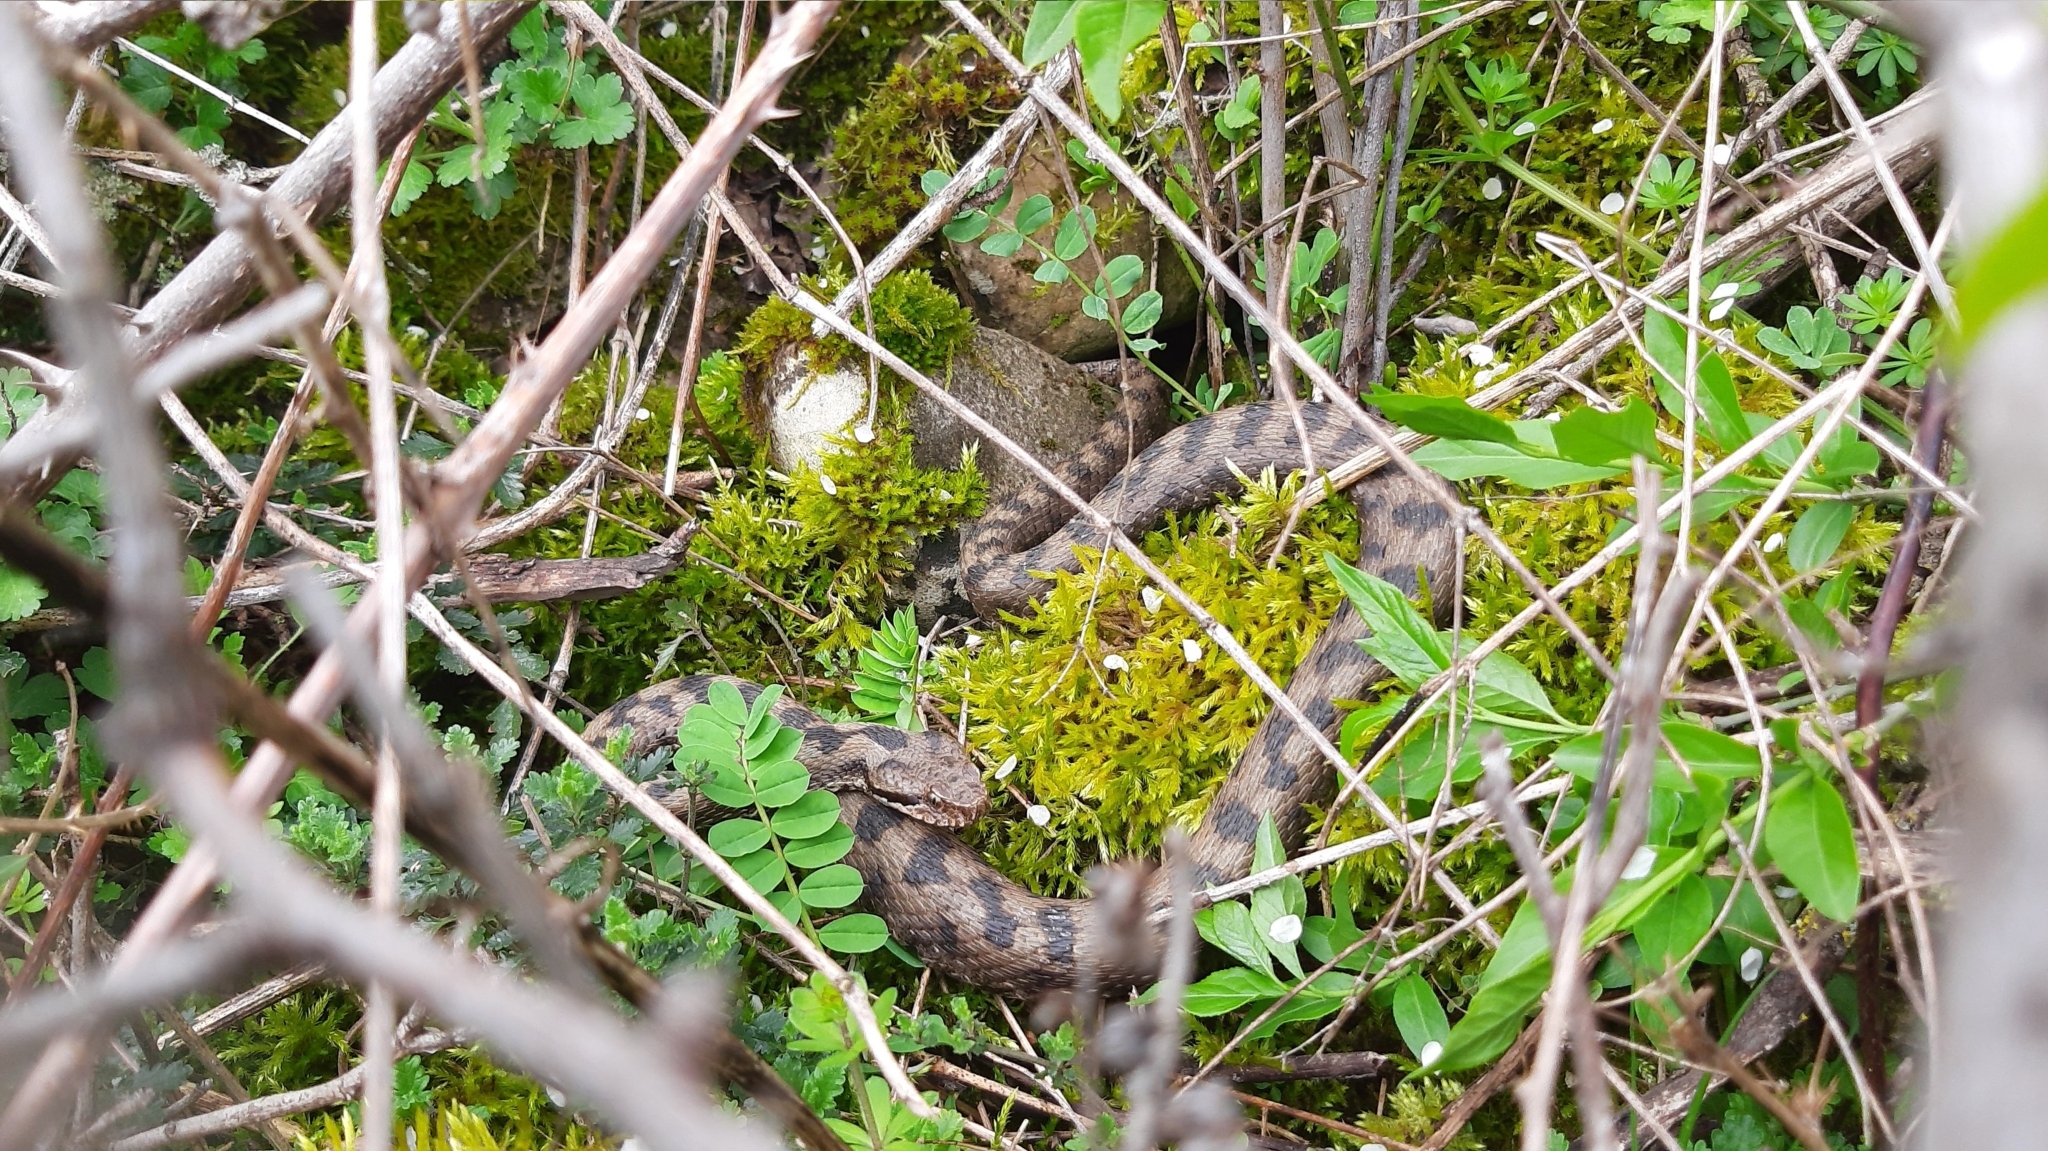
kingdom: Animalia
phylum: Chordata
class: Squamata
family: Viperidae
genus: Vipera
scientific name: Vipera aspis
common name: Asp viper
